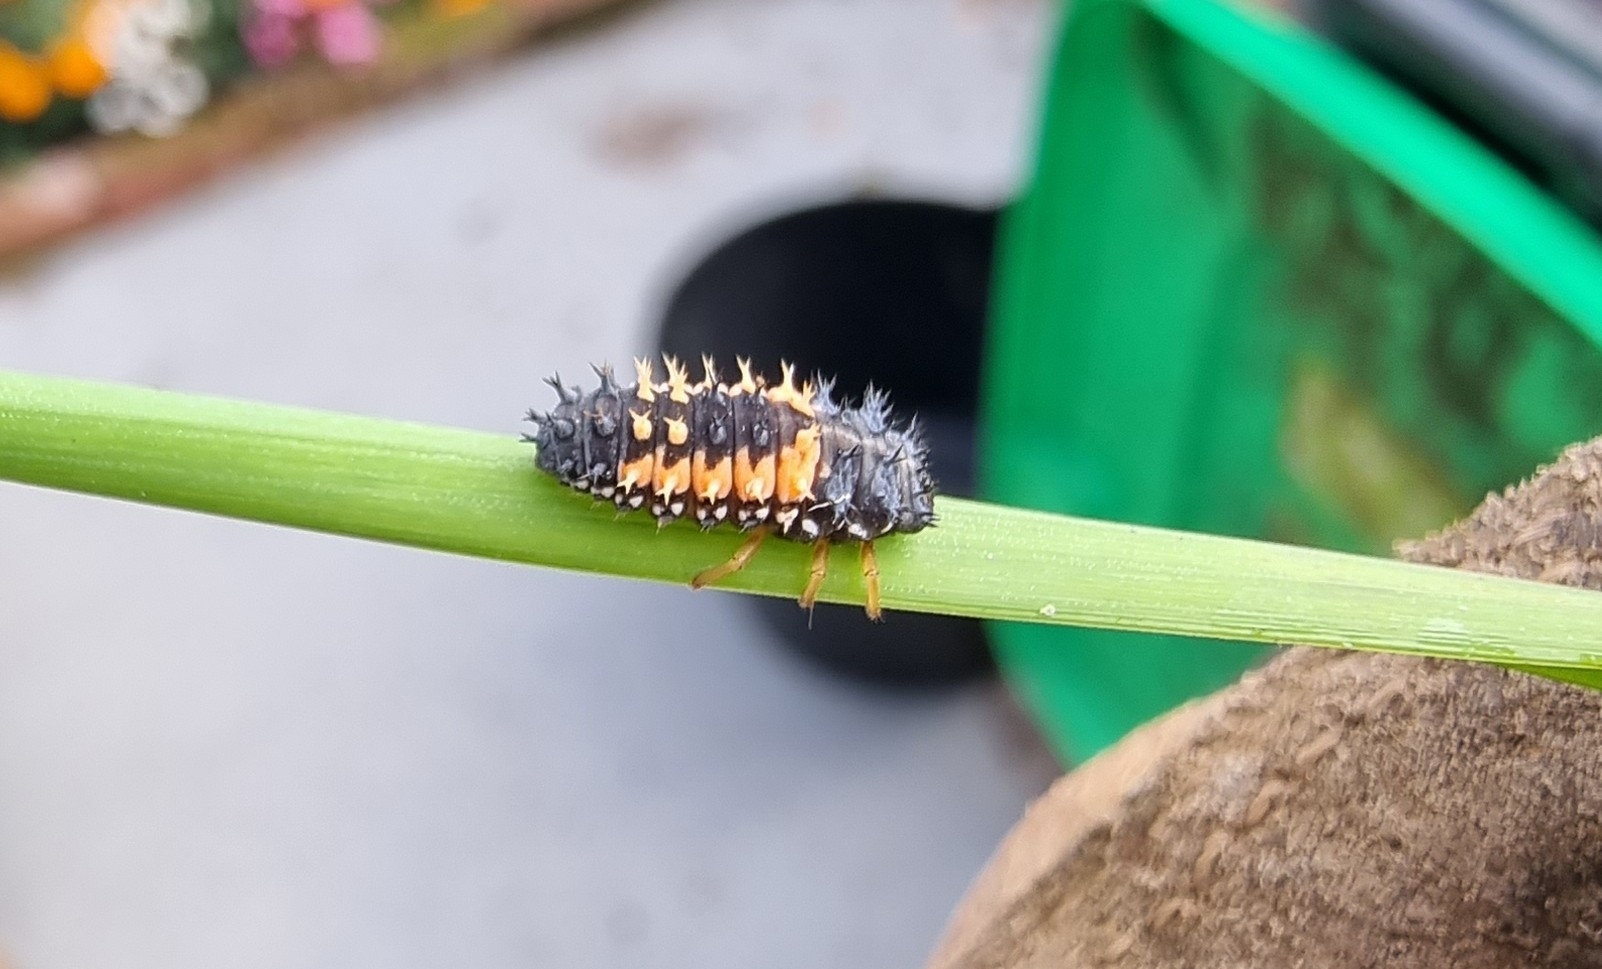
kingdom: Animalia
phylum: Arthropoda
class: Insecta
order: Coleoptera
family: Coccinellidae
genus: Harmonia
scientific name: Harmonia axyridis
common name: Harlequin ladybird
